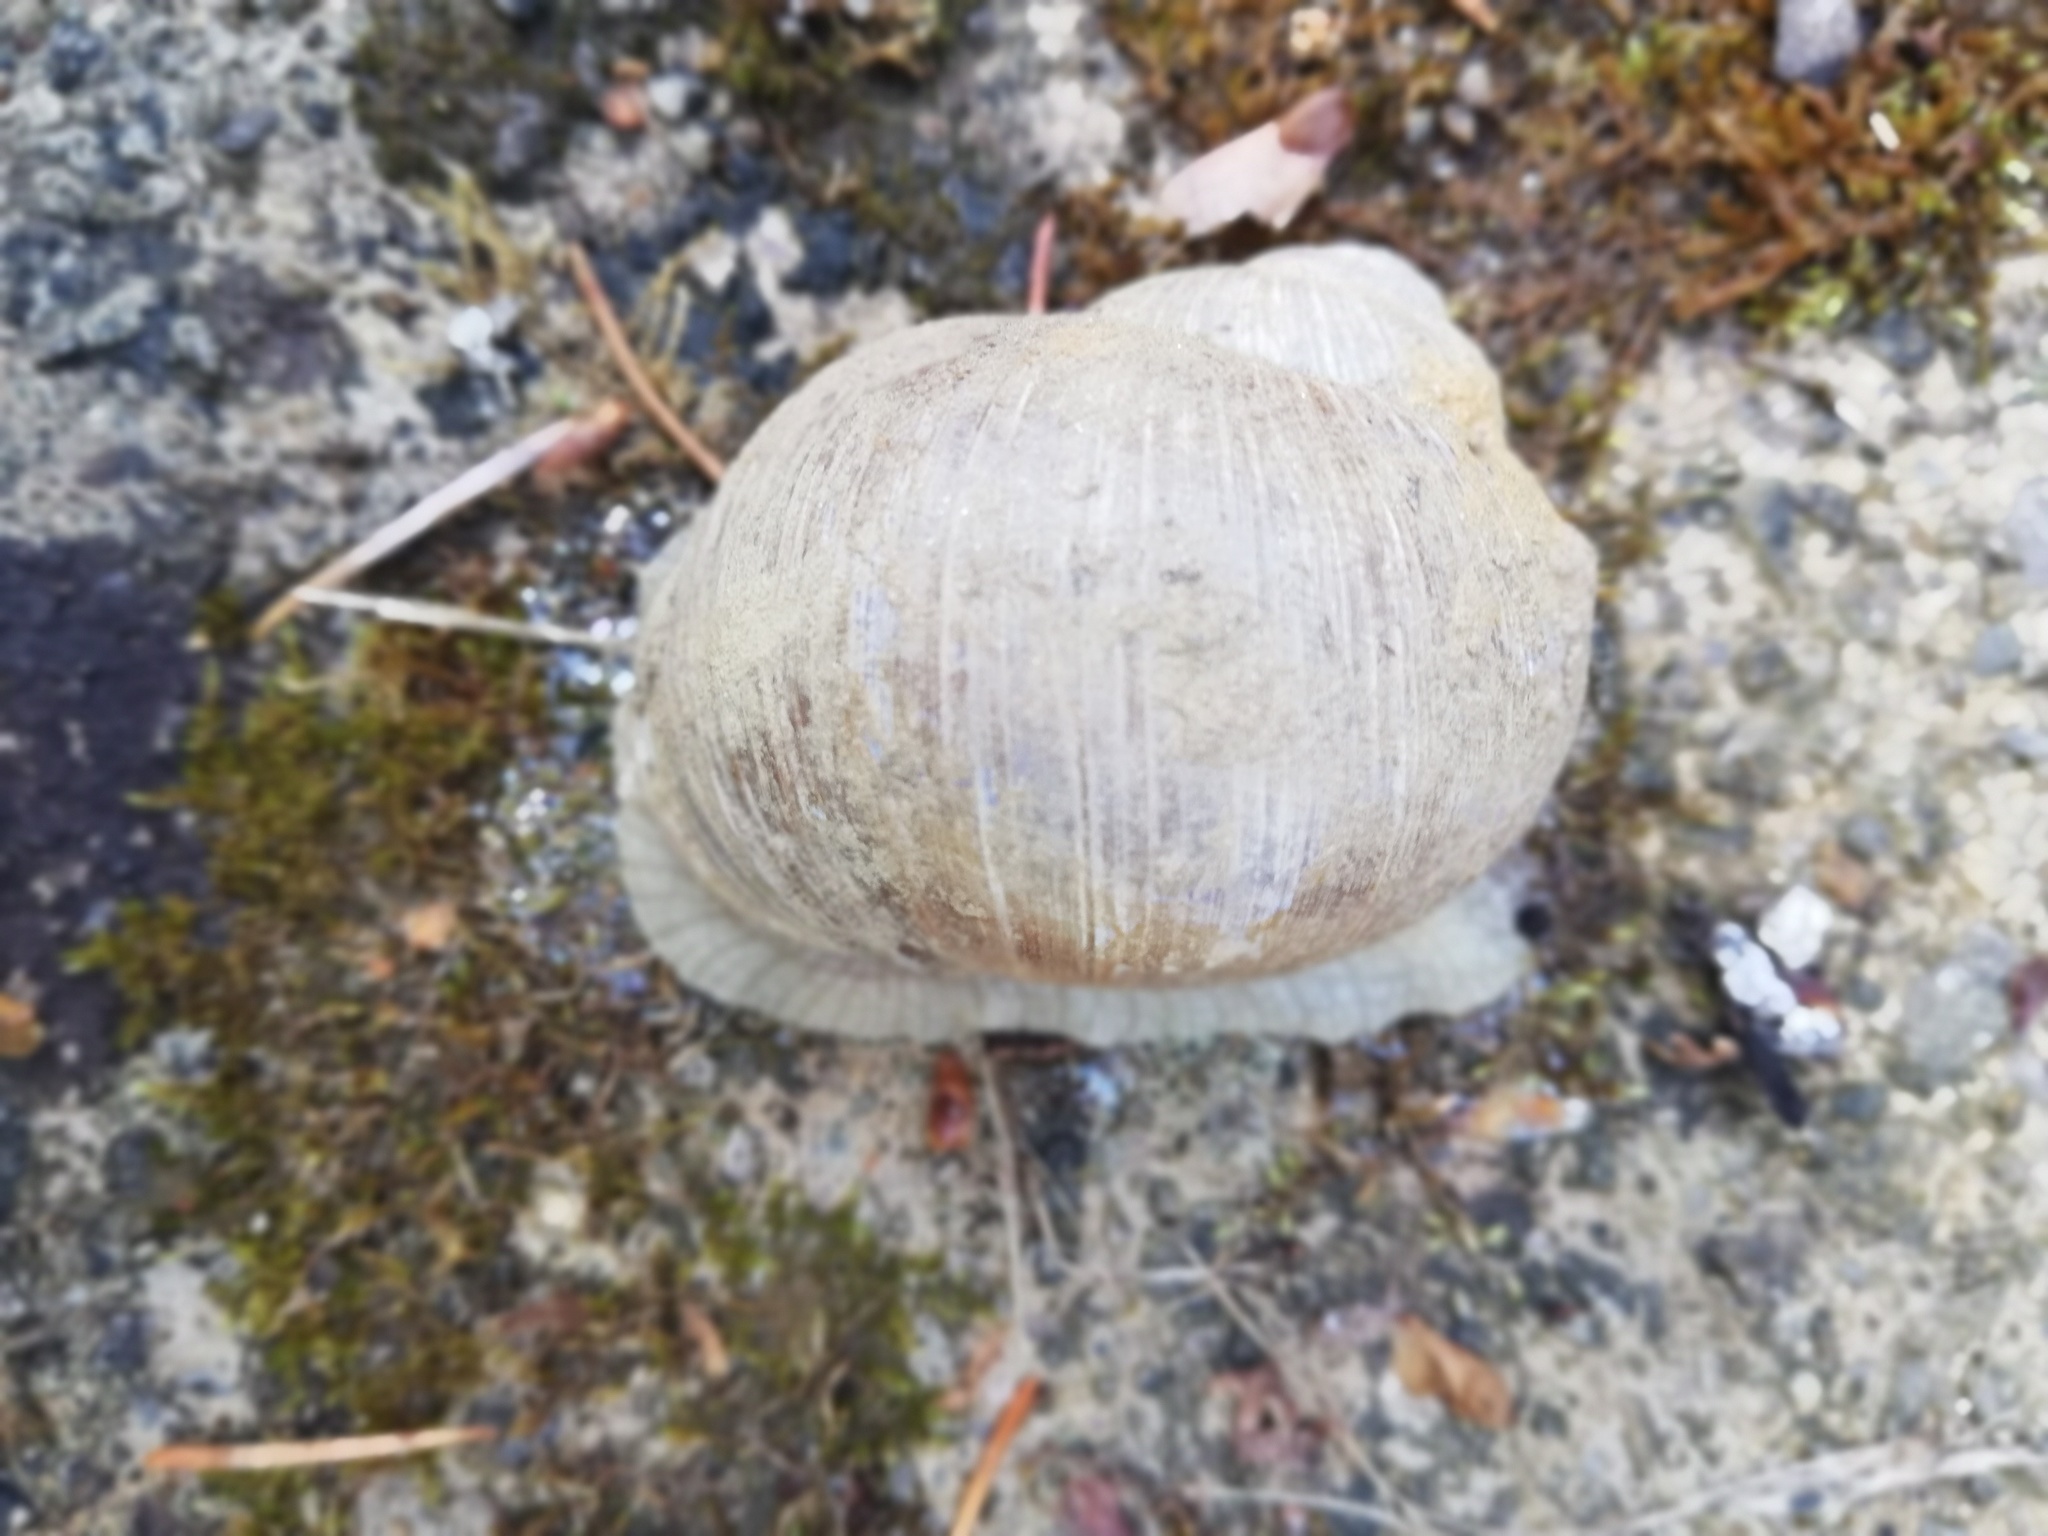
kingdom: Animalia
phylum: Mollusca
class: Gastropoda
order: Stylommatophora
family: Helicidae
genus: Helix
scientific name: Helix pomatia
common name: Roman snail
